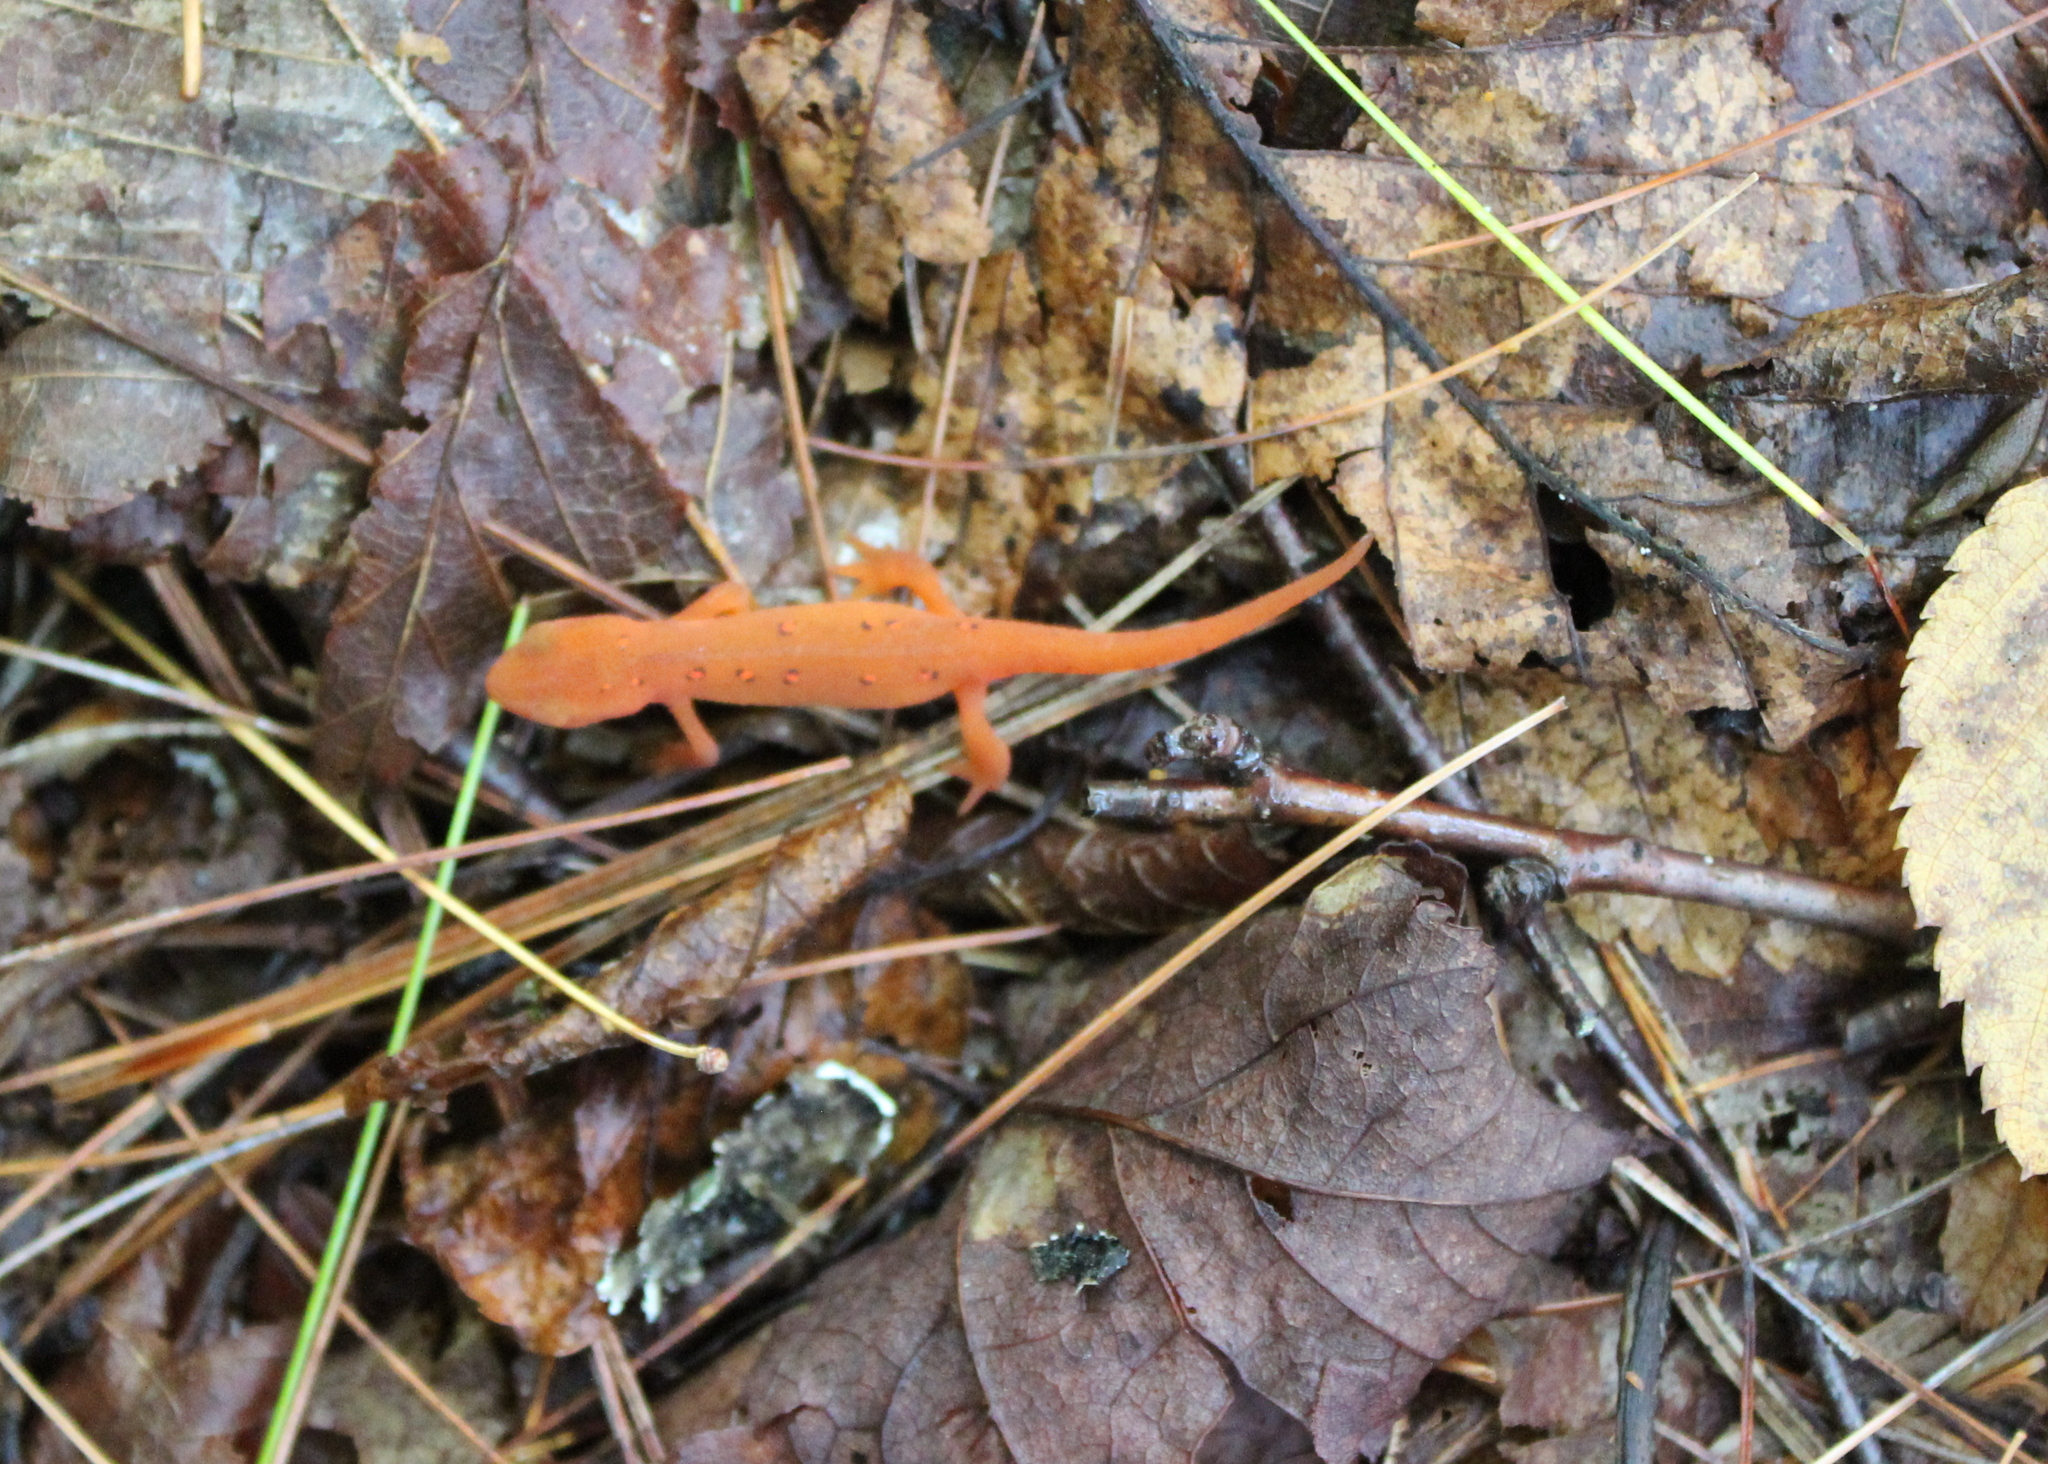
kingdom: Animalia
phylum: Chordata
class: Amphibia
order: Caudata
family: Salamandridae
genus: Notophthalmus
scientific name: Notophthalmus viridescens
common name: Eastern newt
